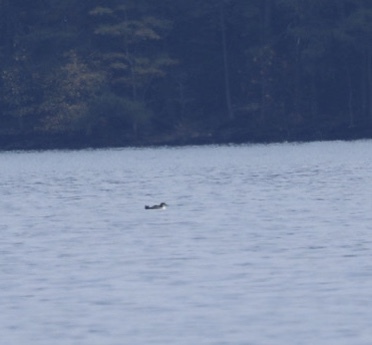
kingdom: Animalia
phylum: Chordata
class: Aves
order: Gaviiformes
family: Gaviidae
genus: Gavia
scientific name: Gavia immer
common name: Common loon
